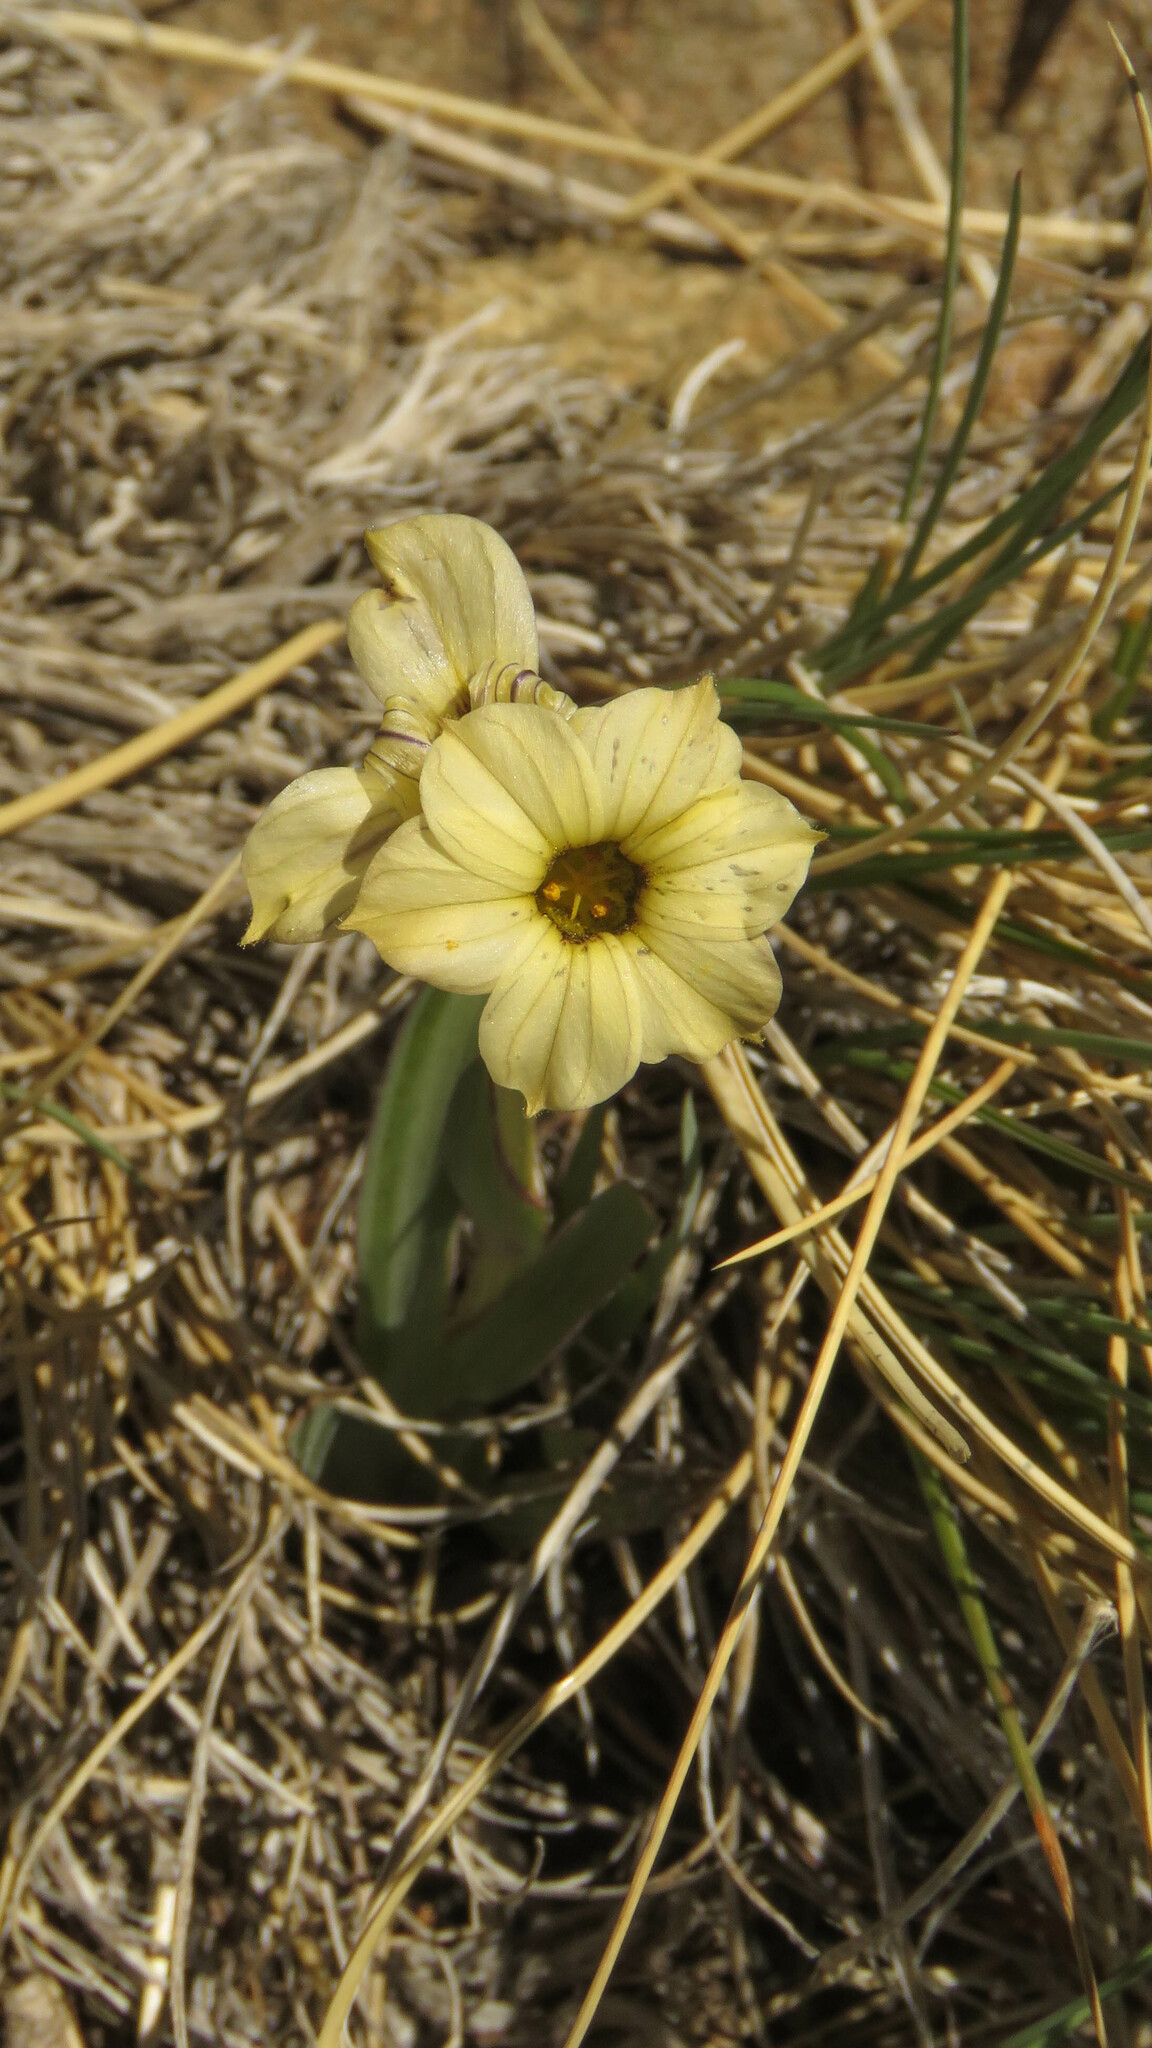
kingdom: Plantae
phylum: Tracheophyta
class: Liliopsida
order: Asparagales
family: Iridaceae
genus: Sisyrinchium
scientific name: Sisyrinchium arenarium
